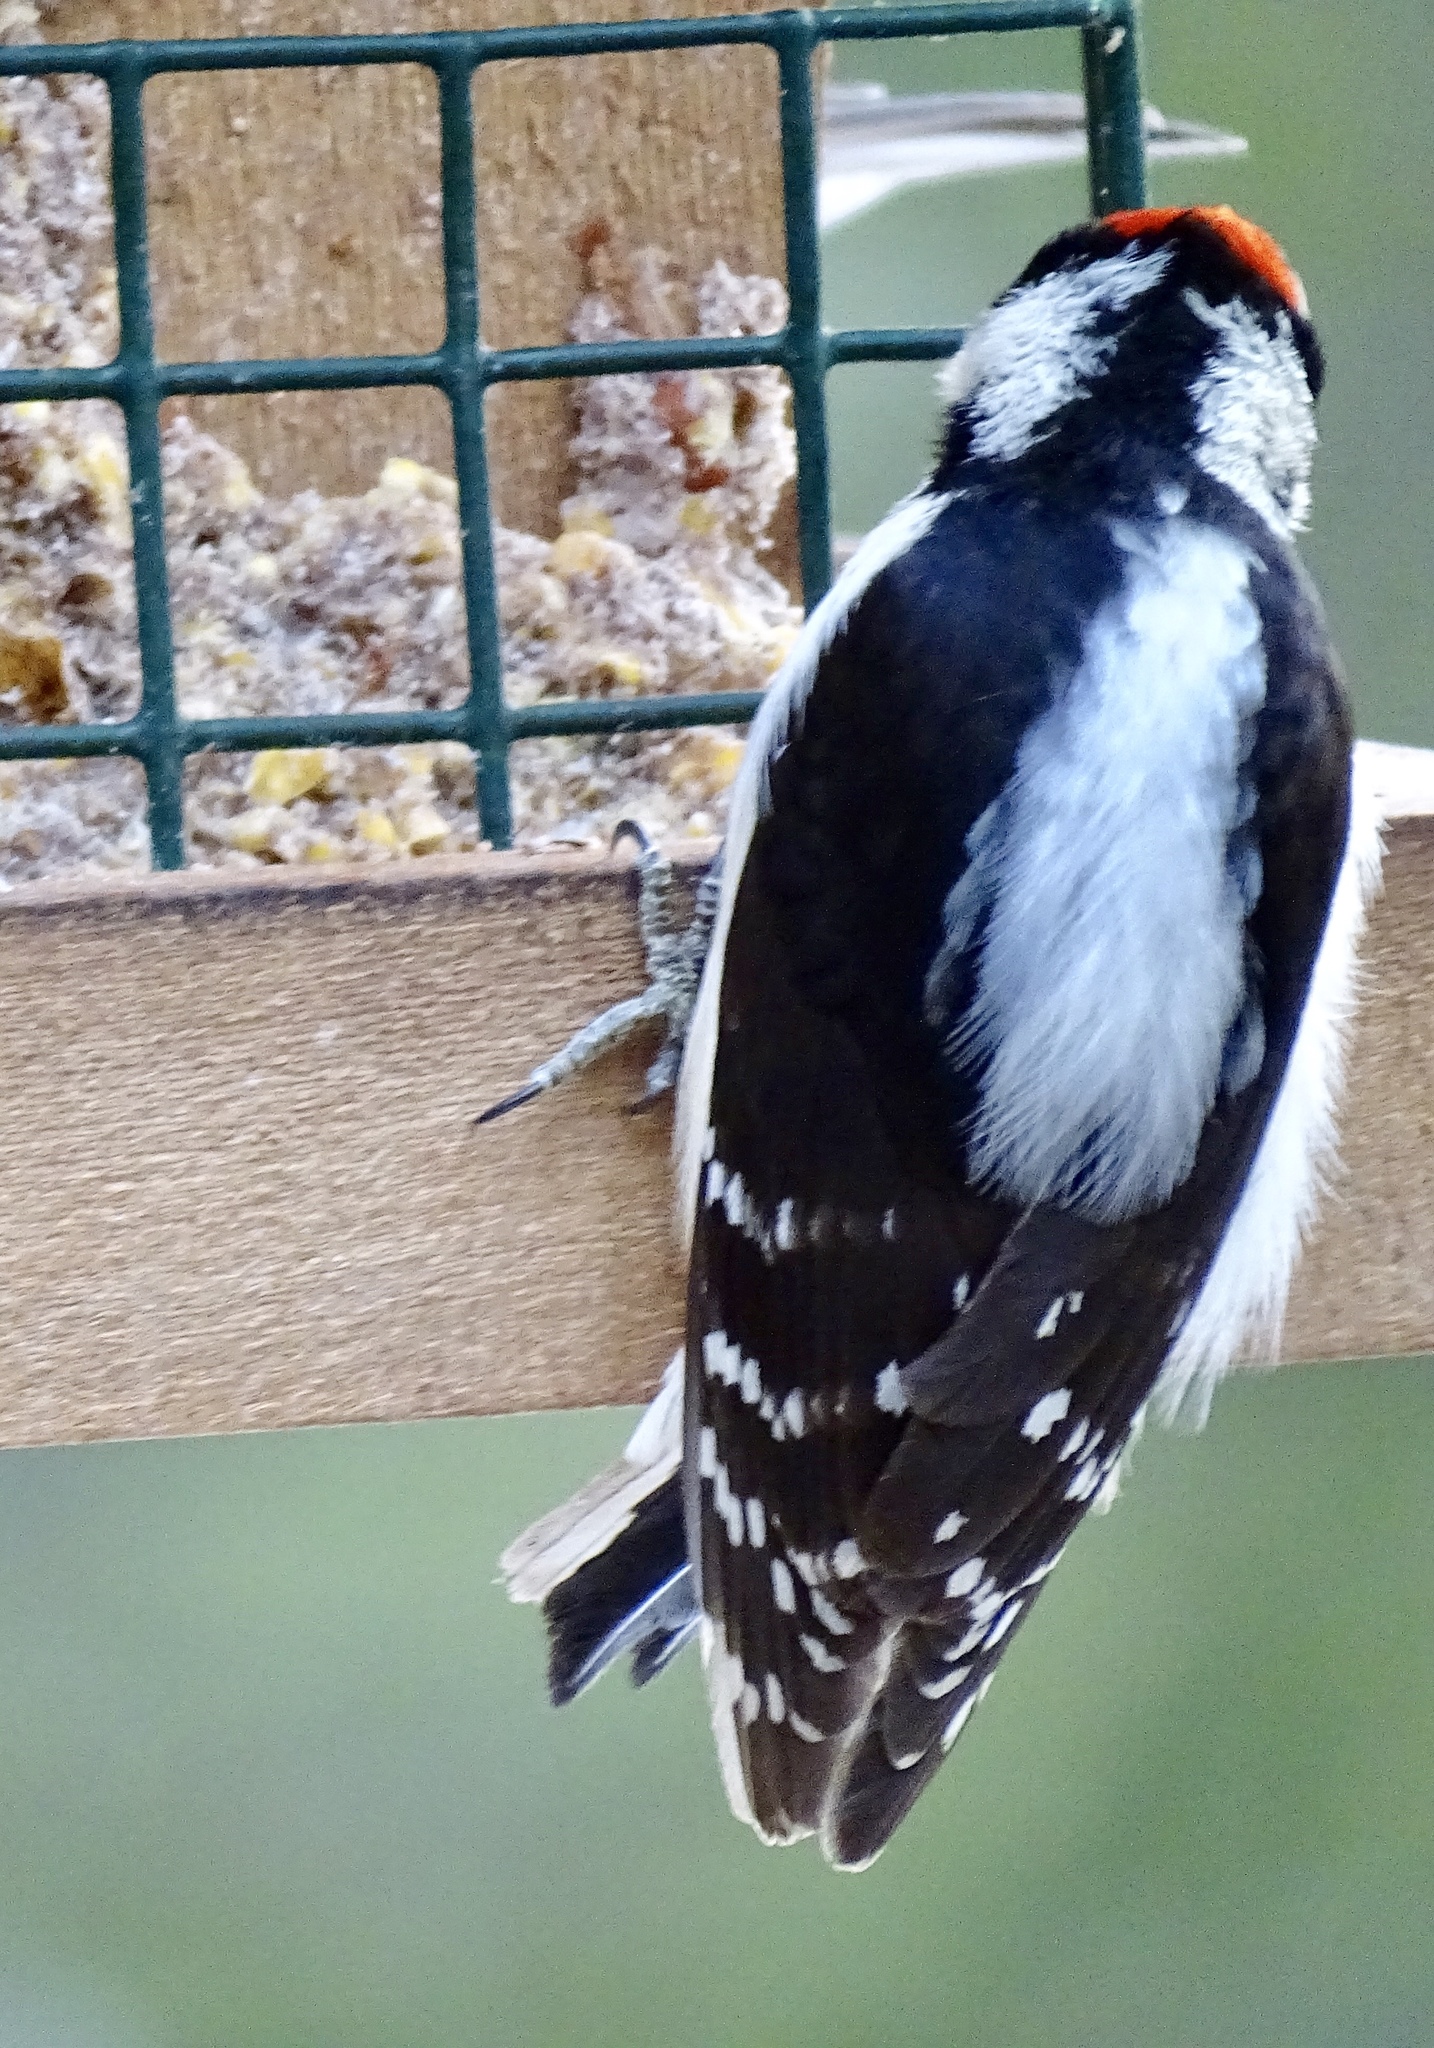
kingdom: Animalia
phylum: Chordata
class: Aves
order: Piciformes
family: Picidae
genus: Dryobates
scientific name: Dryobates pubescens
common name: Downy woodpecker
